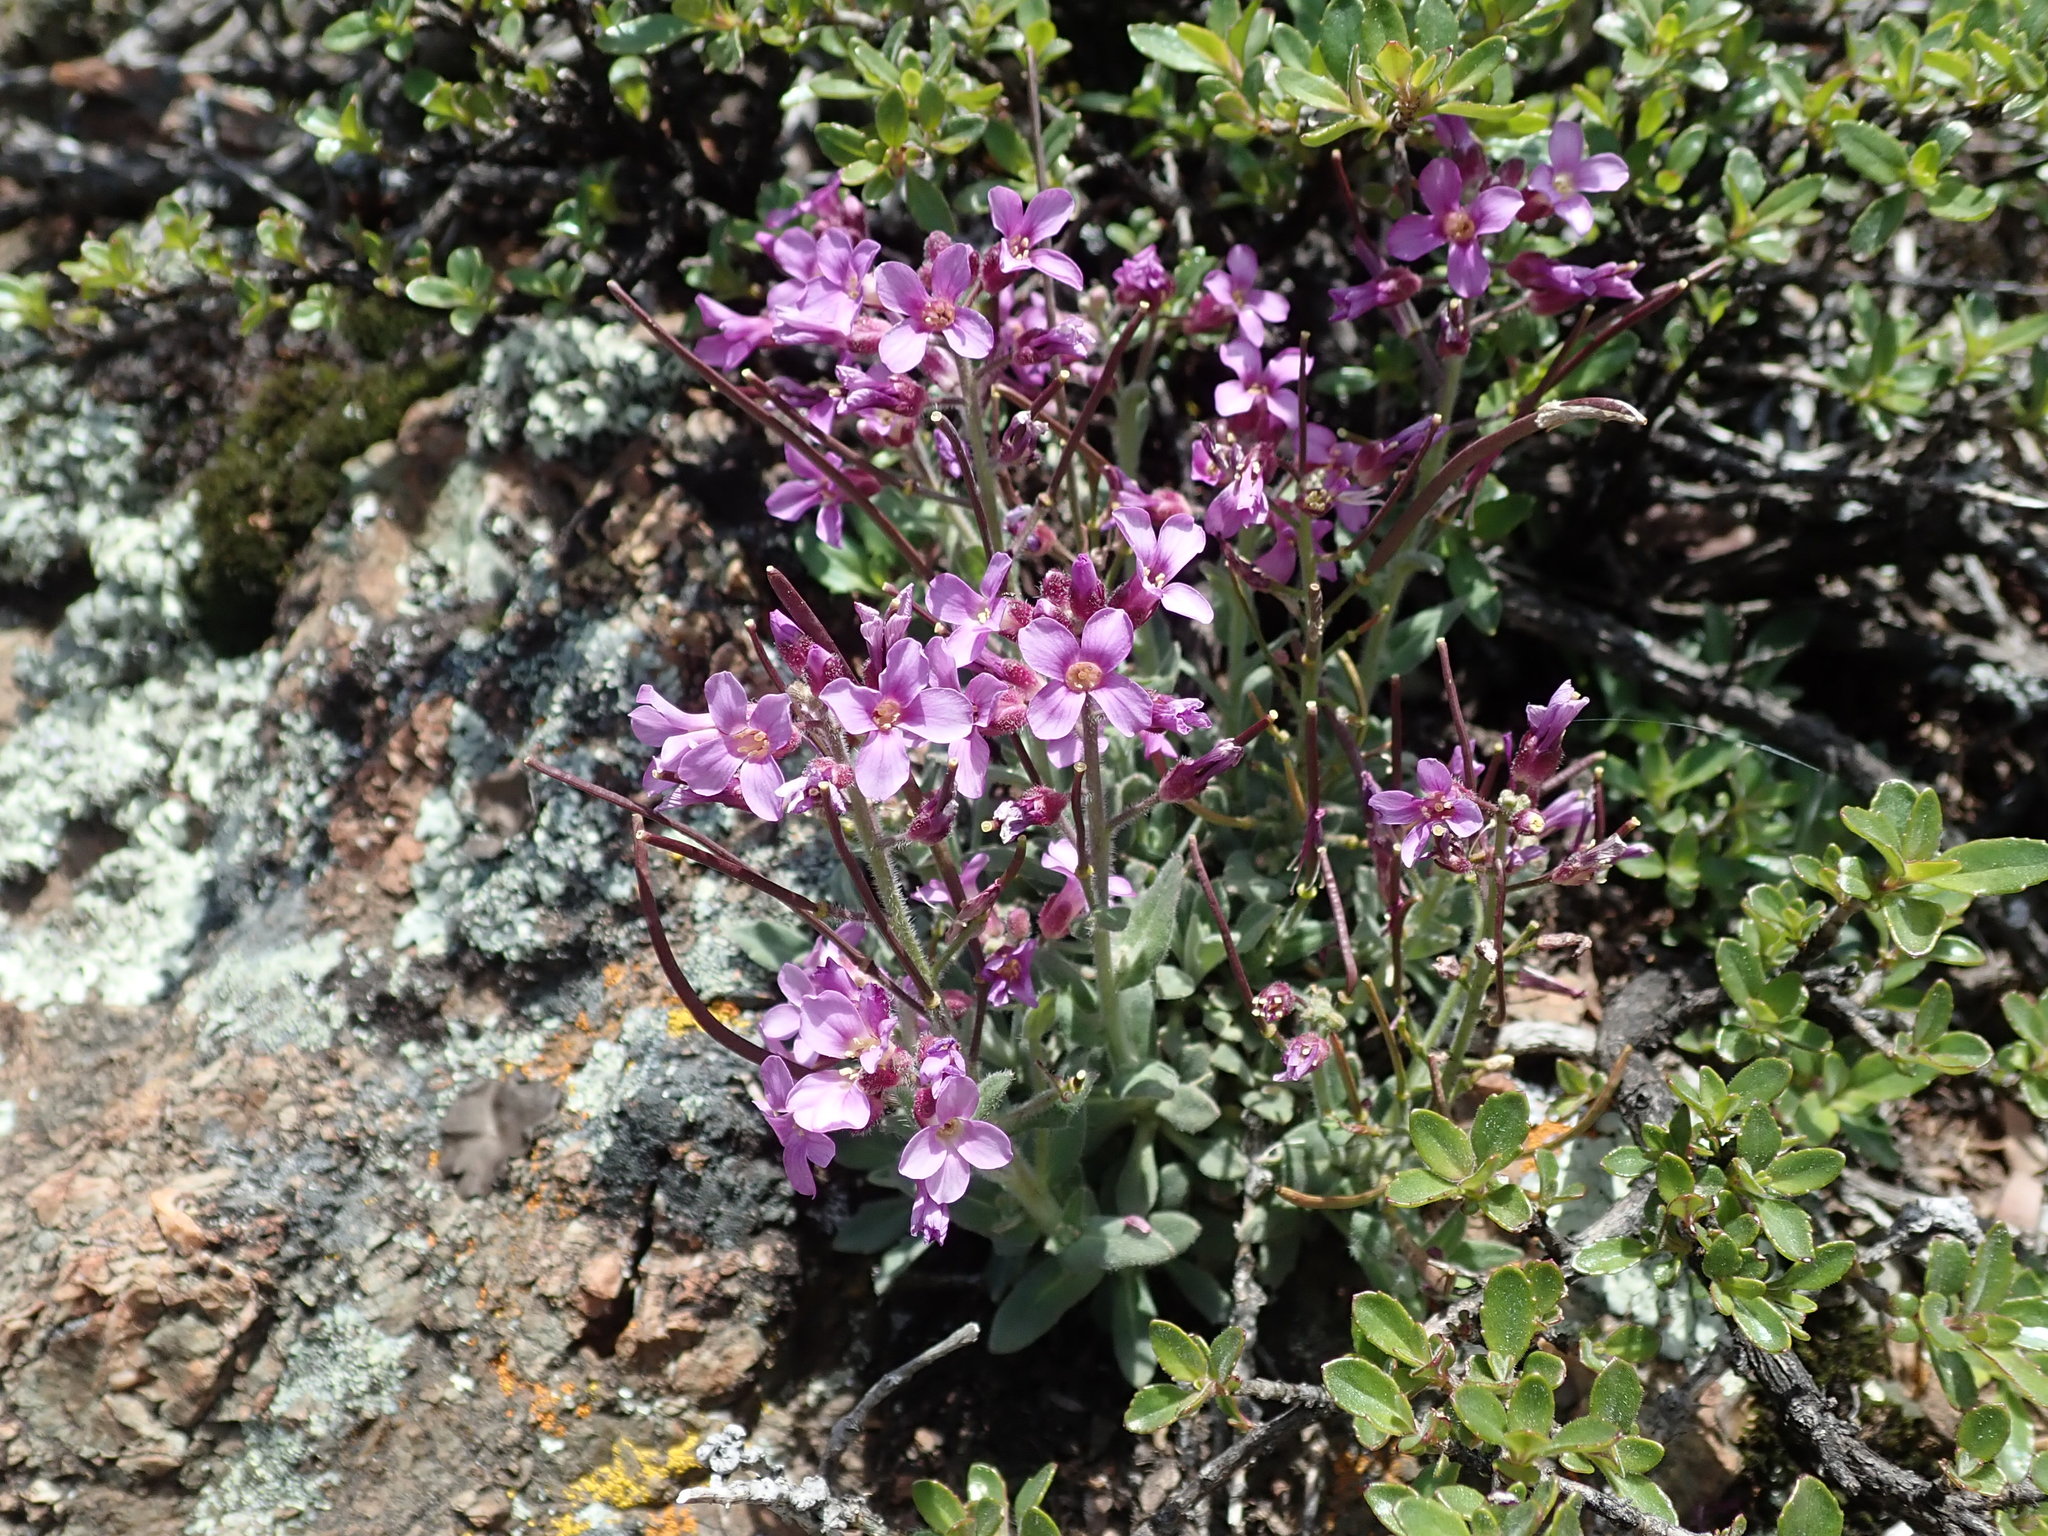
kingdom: Plantae
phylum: Tracheophyta
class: Magnoliopsida
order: Brassicales
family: Brassicaceae
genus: Boechera
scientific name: Boechera breweri
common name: Brewer's rockcress
